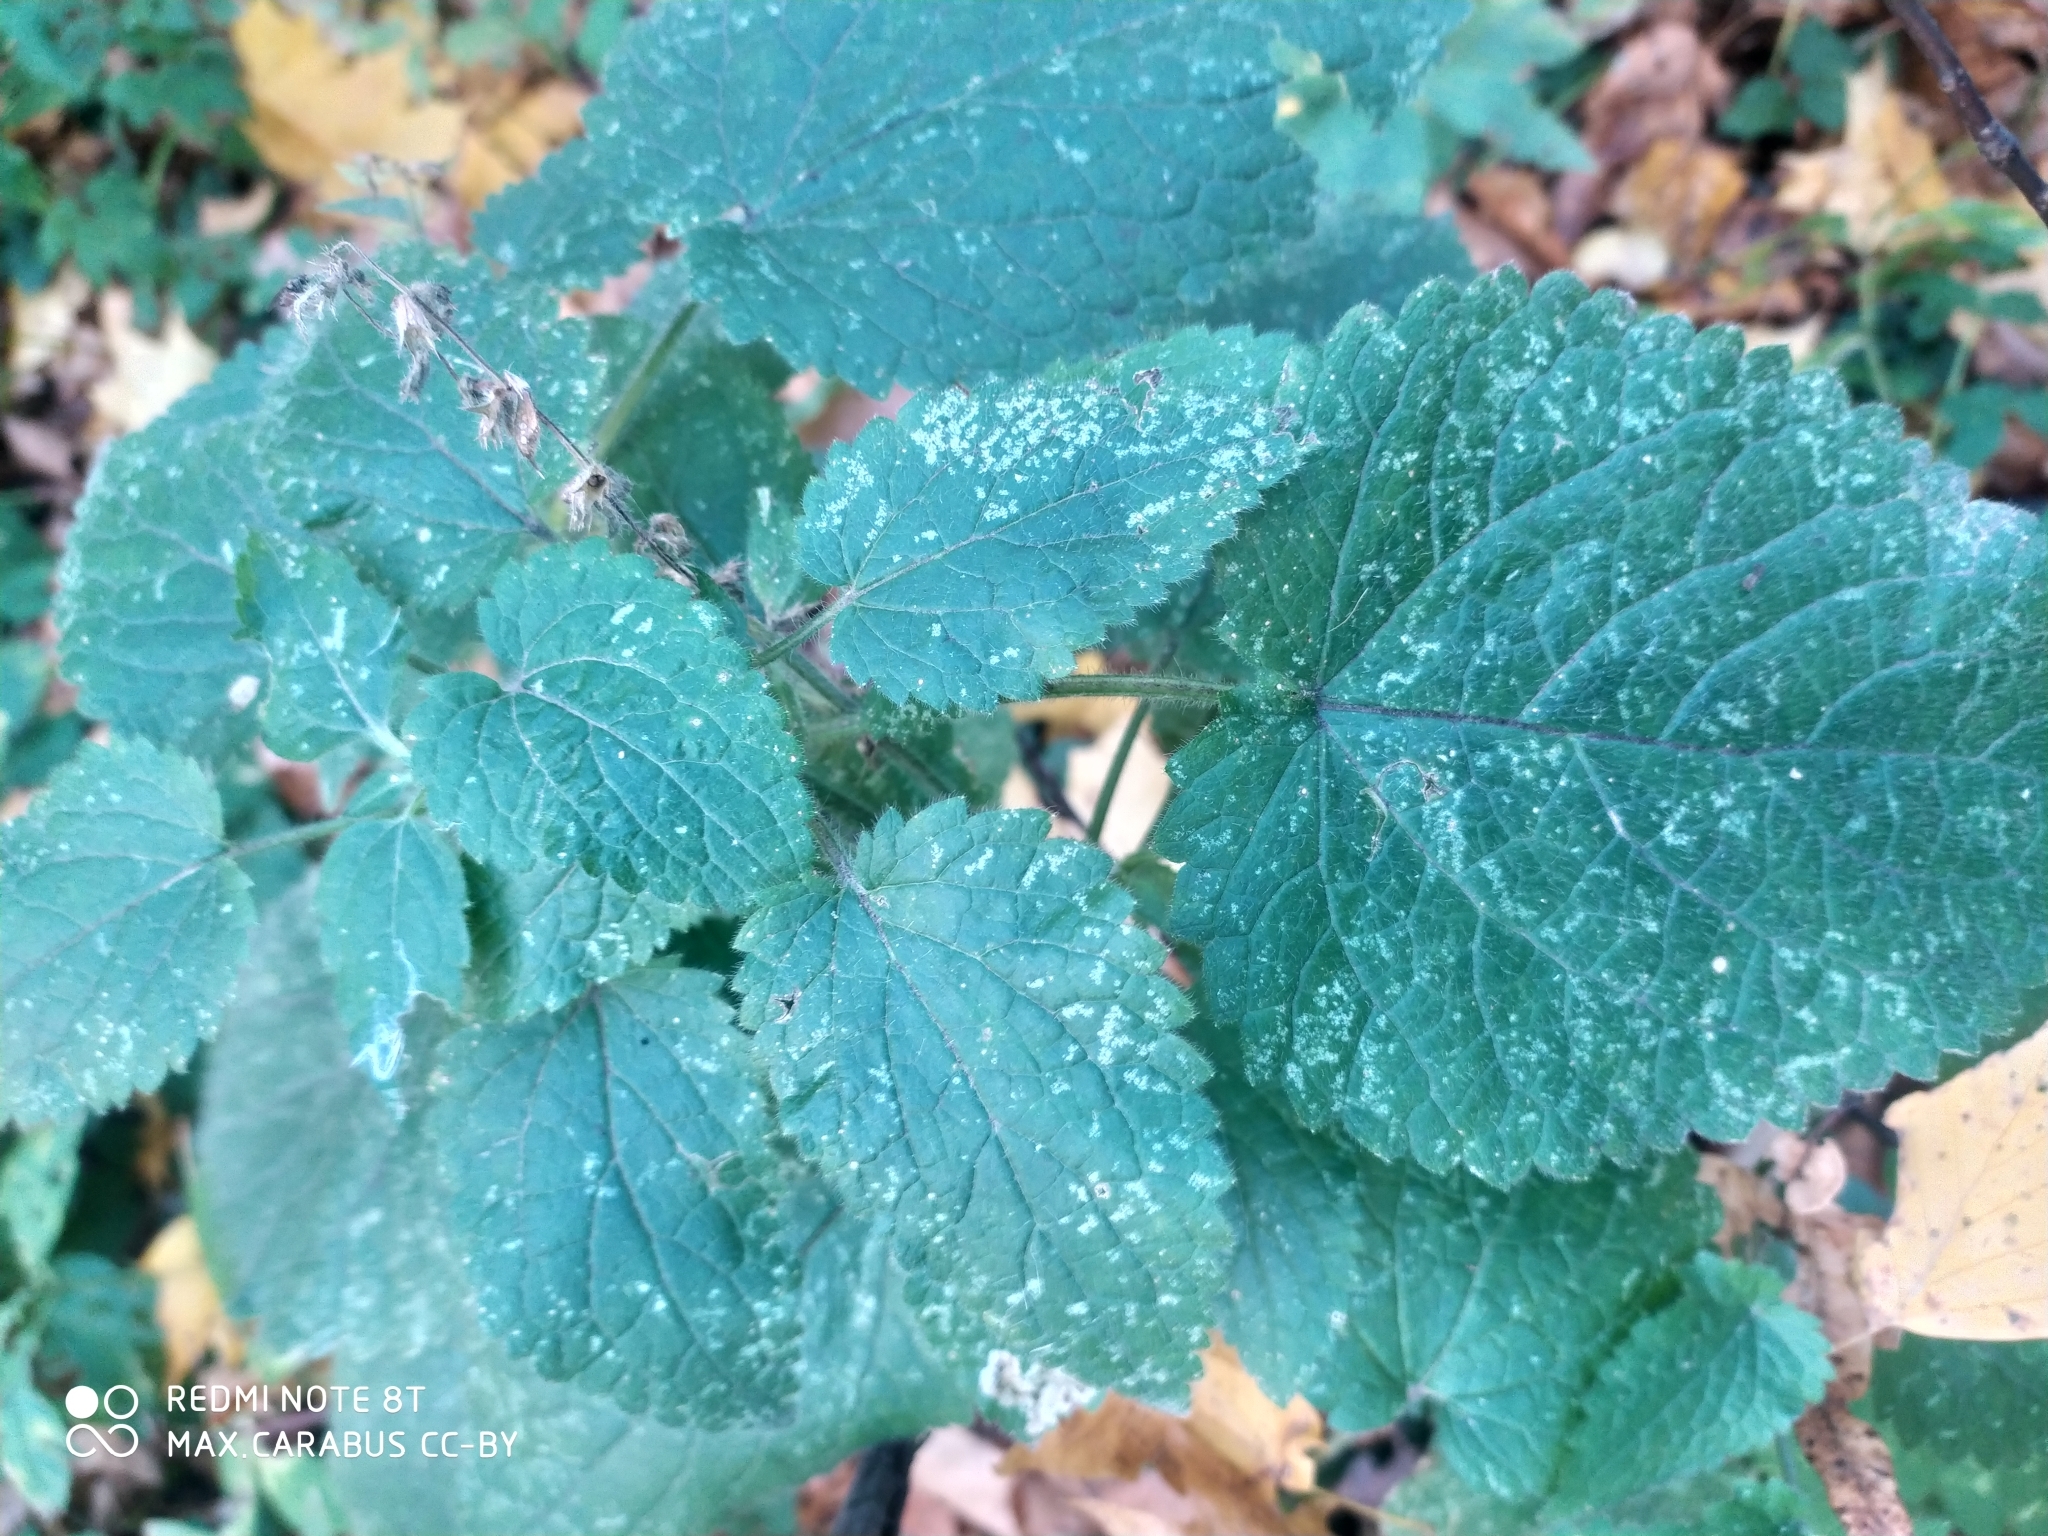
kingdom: Plantae
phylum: Tracheophyta
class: Magnoliopsida
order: Lamiales
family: Lamiaceae
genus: Stachys
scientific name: Stachys sylvatica
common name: Hedge woundwort
